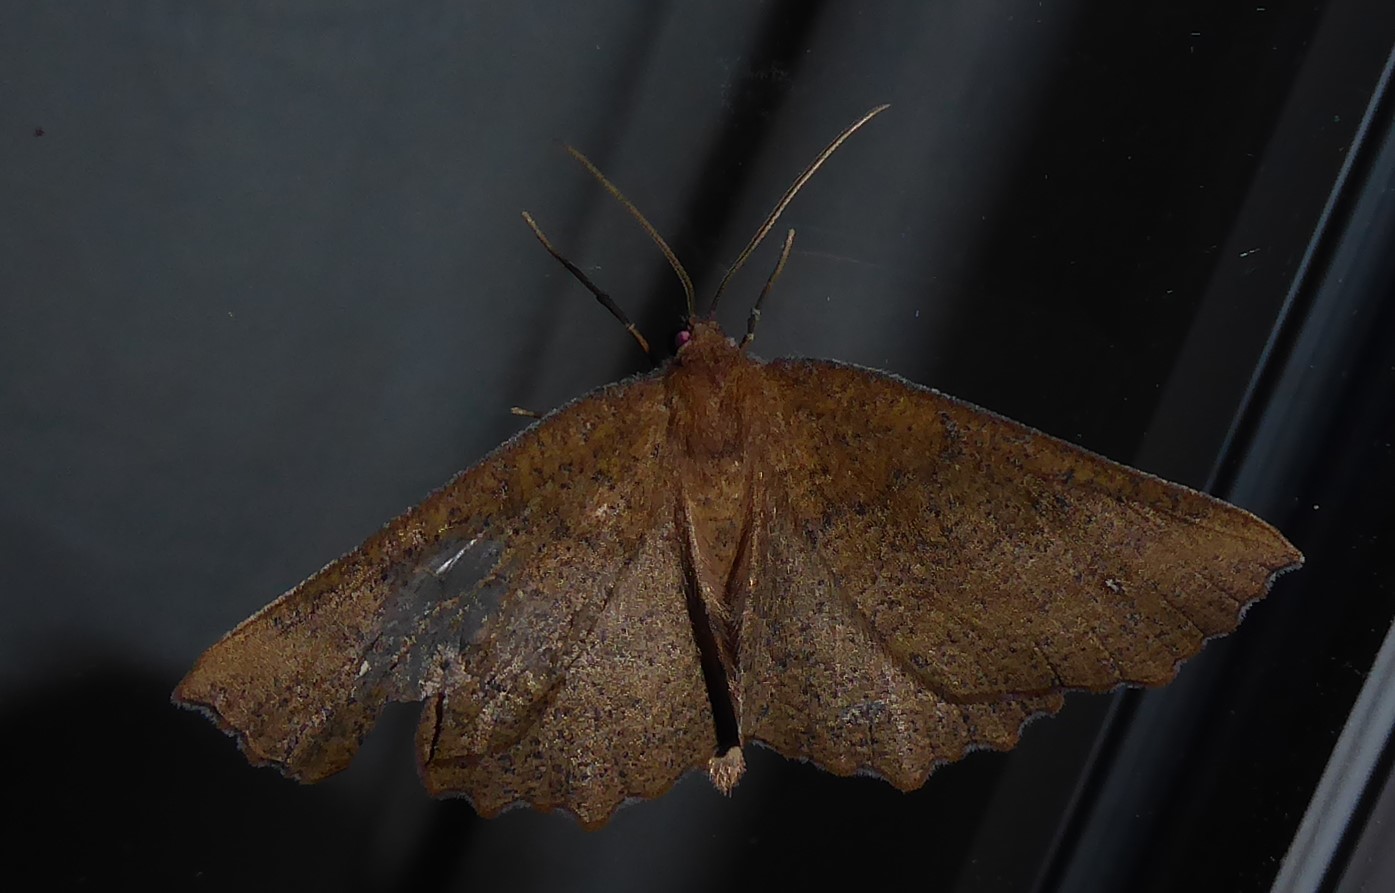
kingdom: Animalia
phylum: Arthropoda
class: Insecta
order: Lepidoptera
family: Geometridae
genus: Xyridacma
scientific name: Xyridacma ustaria
